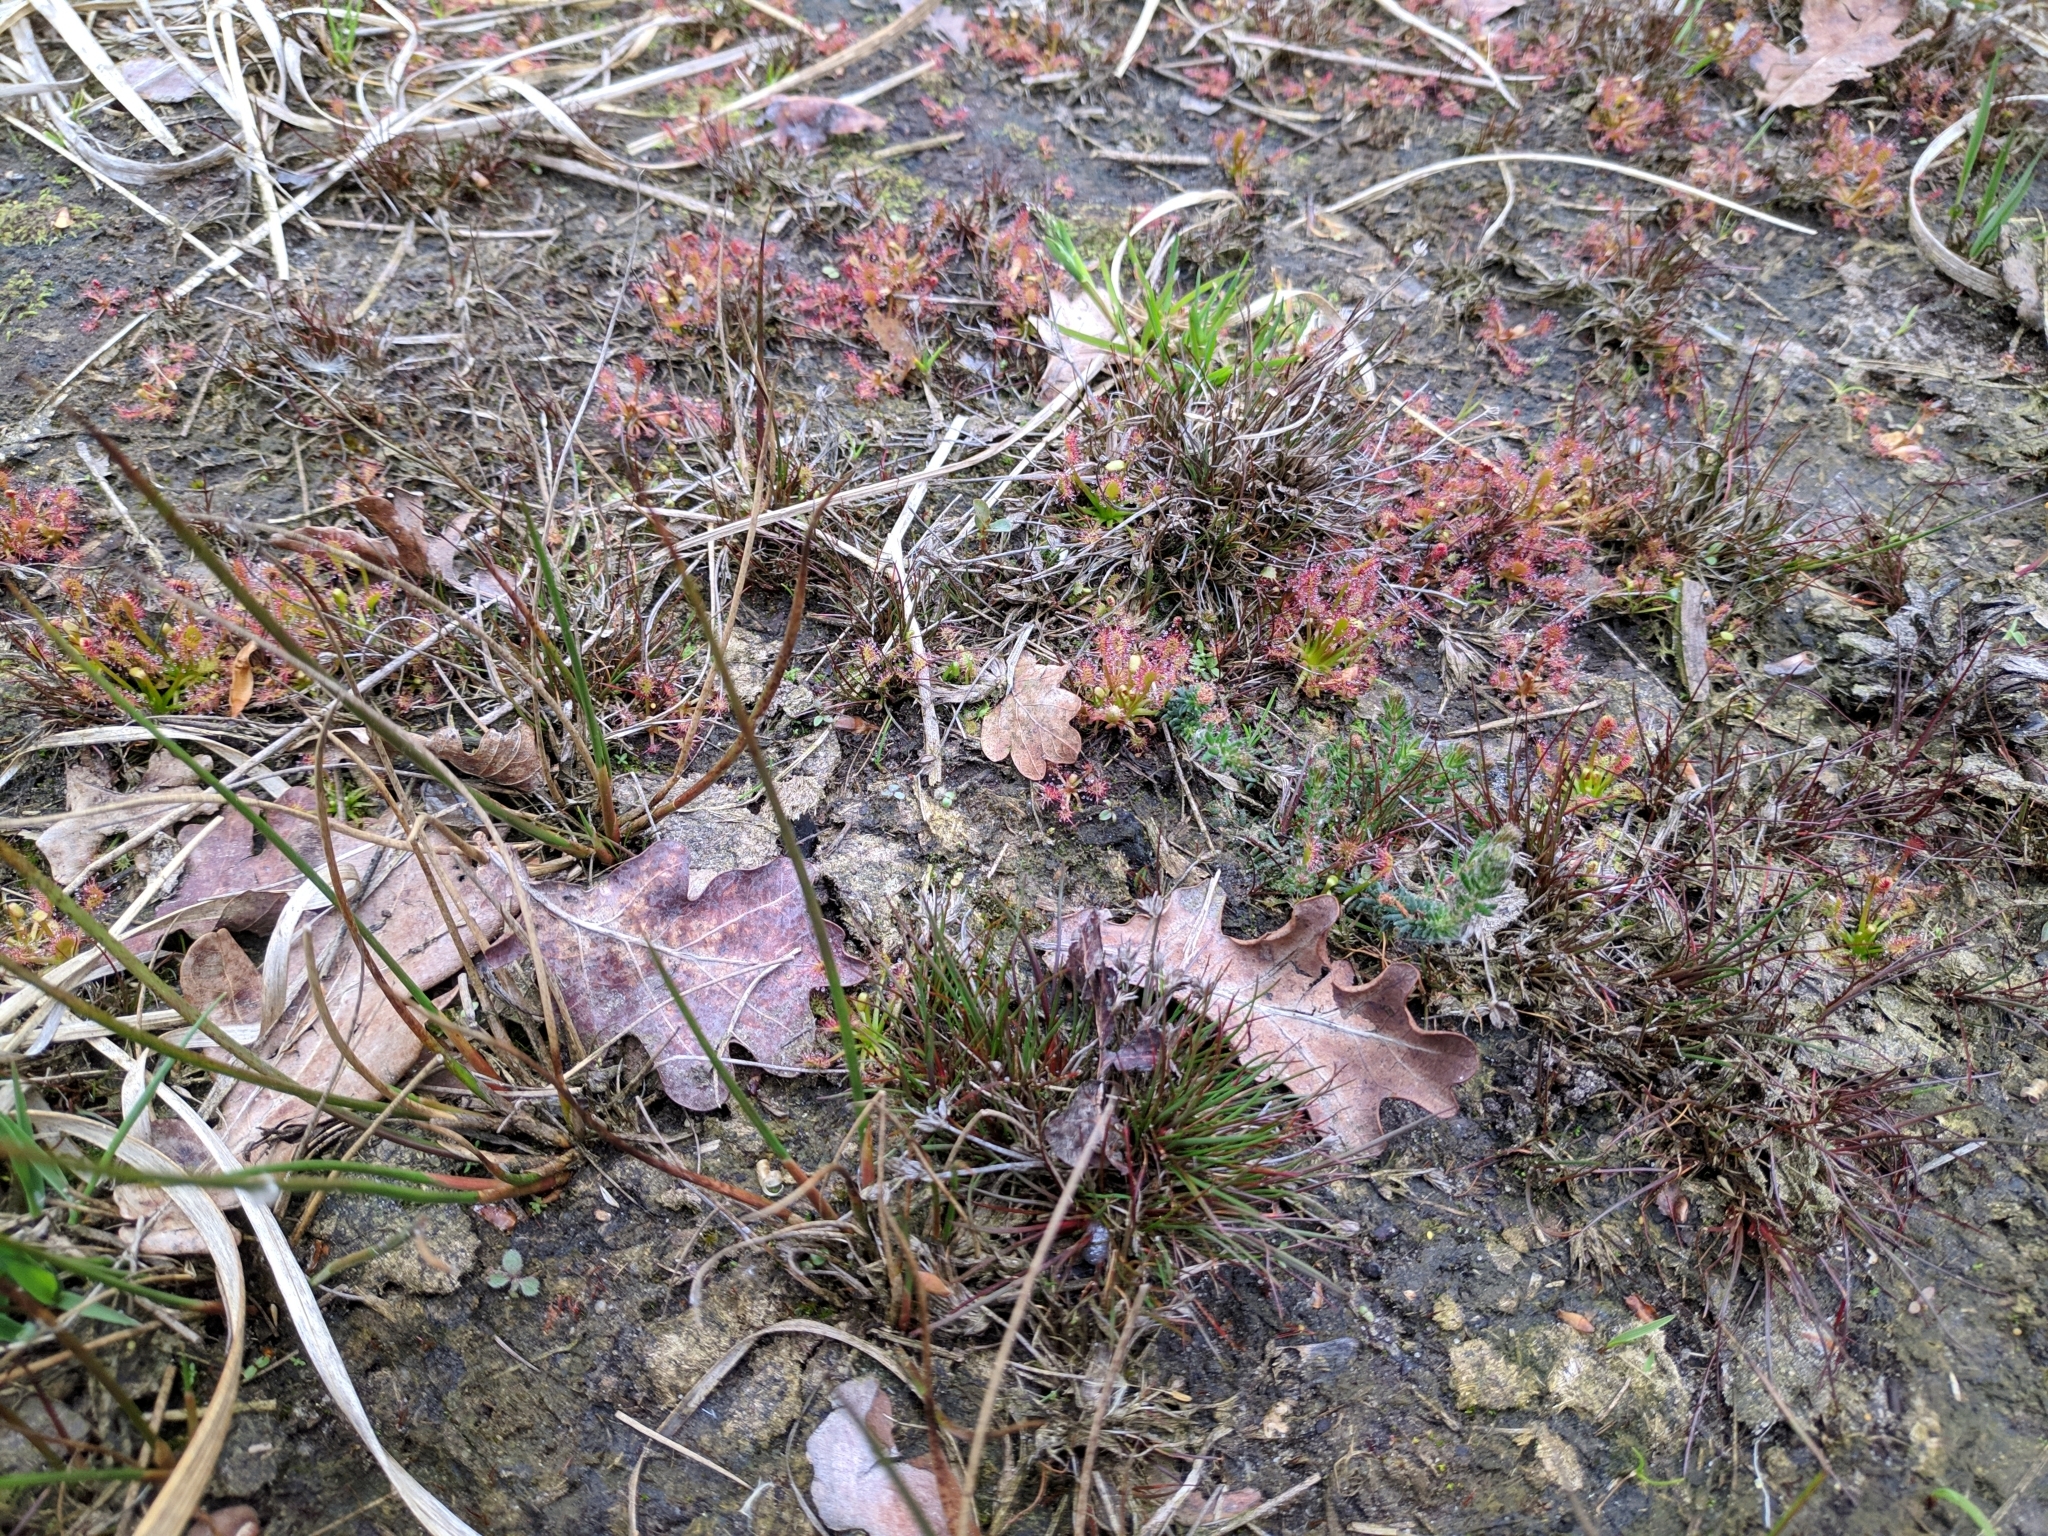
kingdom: Plantae
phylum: Tracheophyta
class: Magnoliopsida
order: Caryophyllales
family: Droseraceae
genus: Drosera
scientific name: Drosera intermedia
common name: Oblong-leaved sundew
